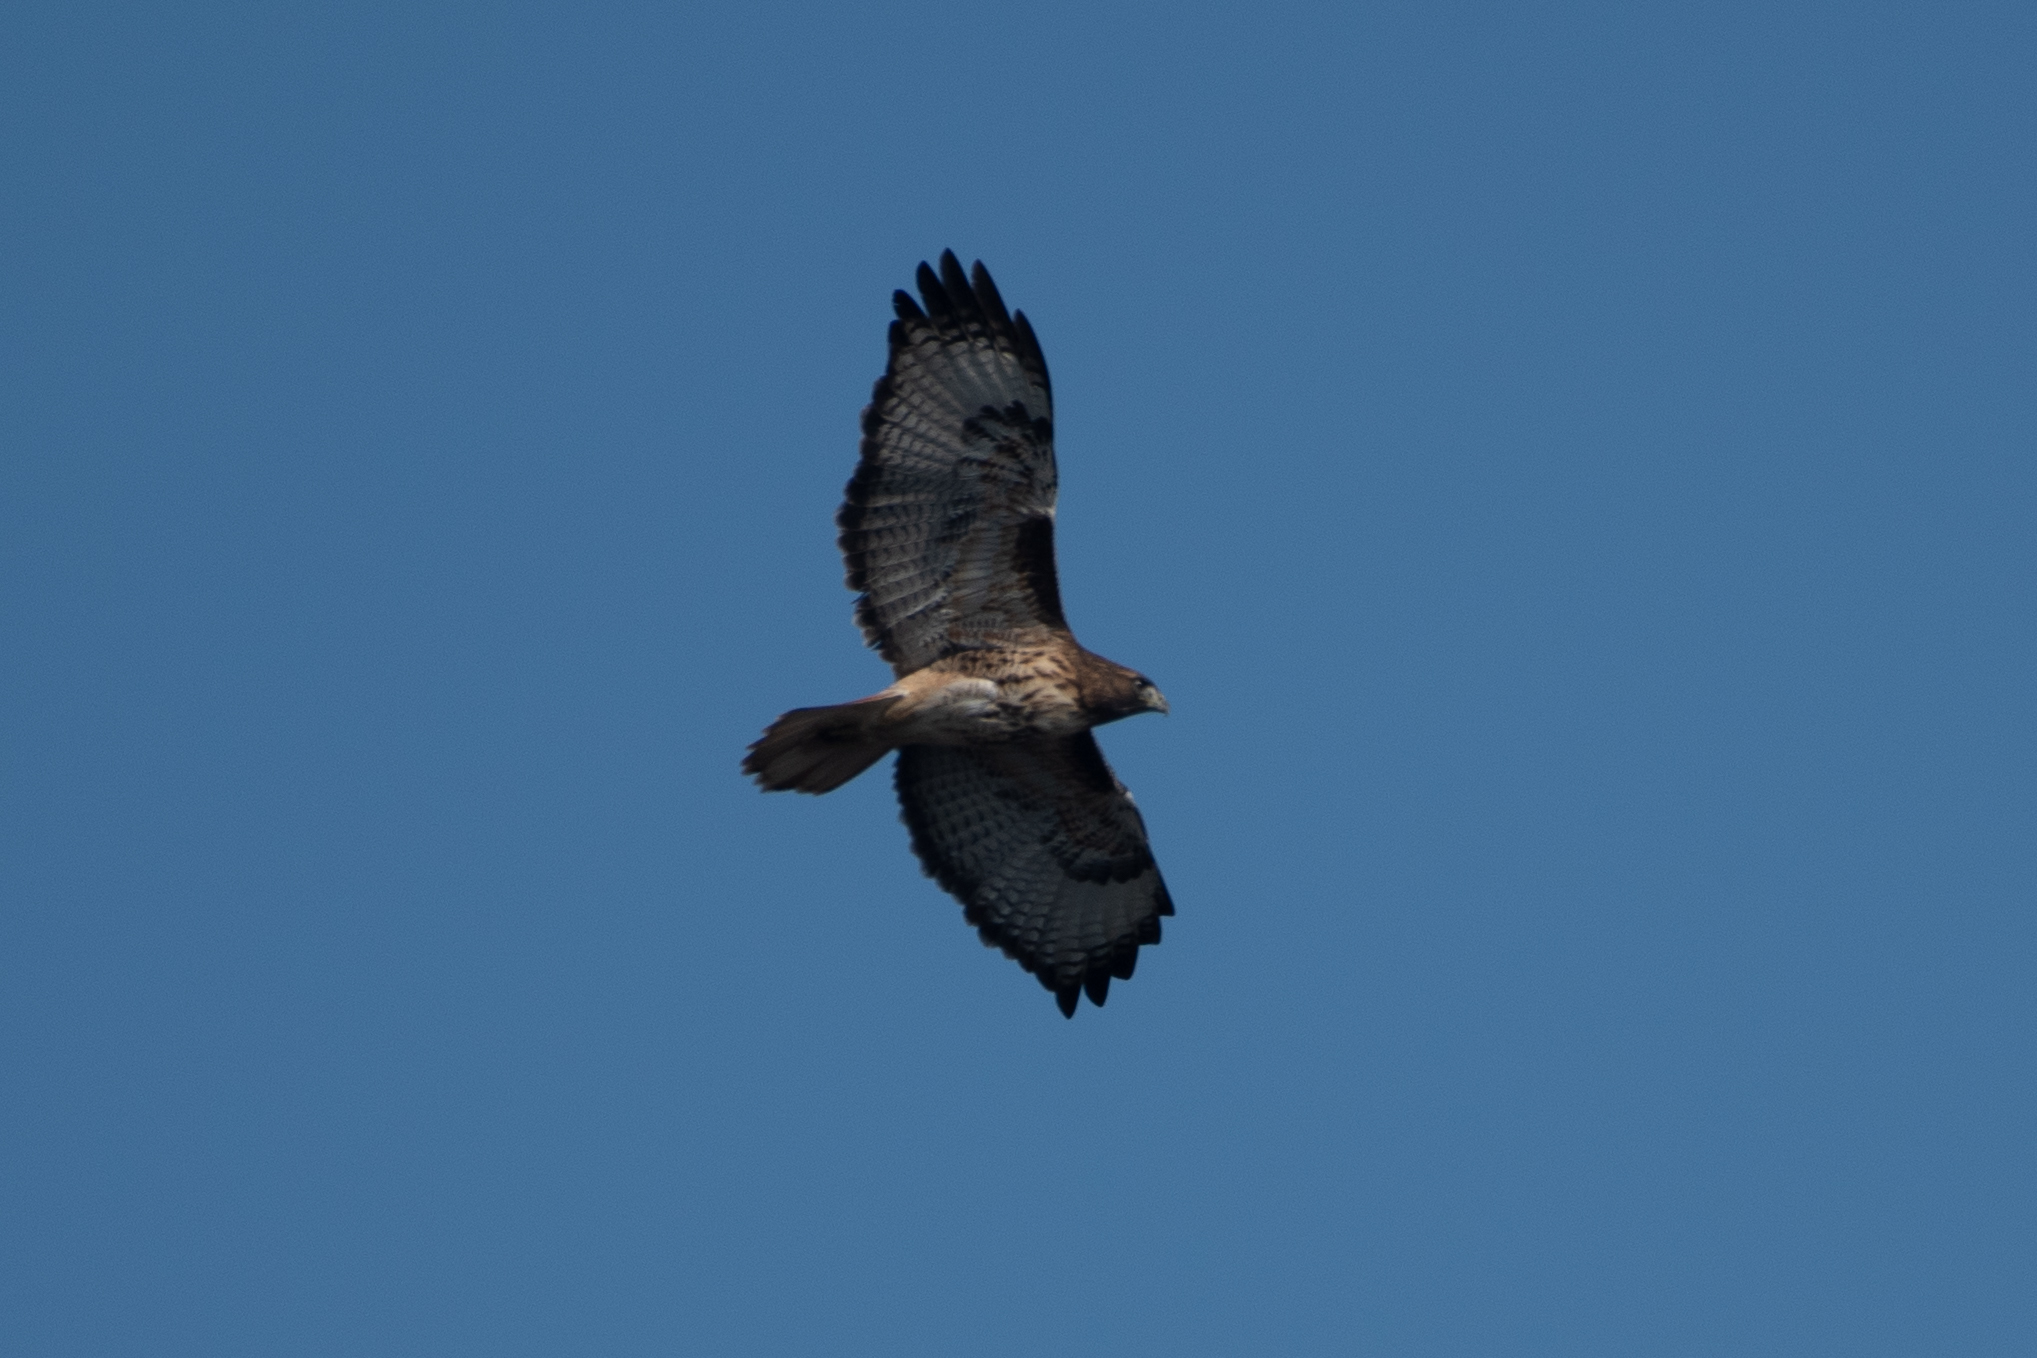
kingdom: Animalia
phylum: Chordata
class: Aves
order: Accipitriformes
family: Accipitridae
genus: Buteo
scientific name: Buteo jamaicensis
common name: Red-tailed hawk
